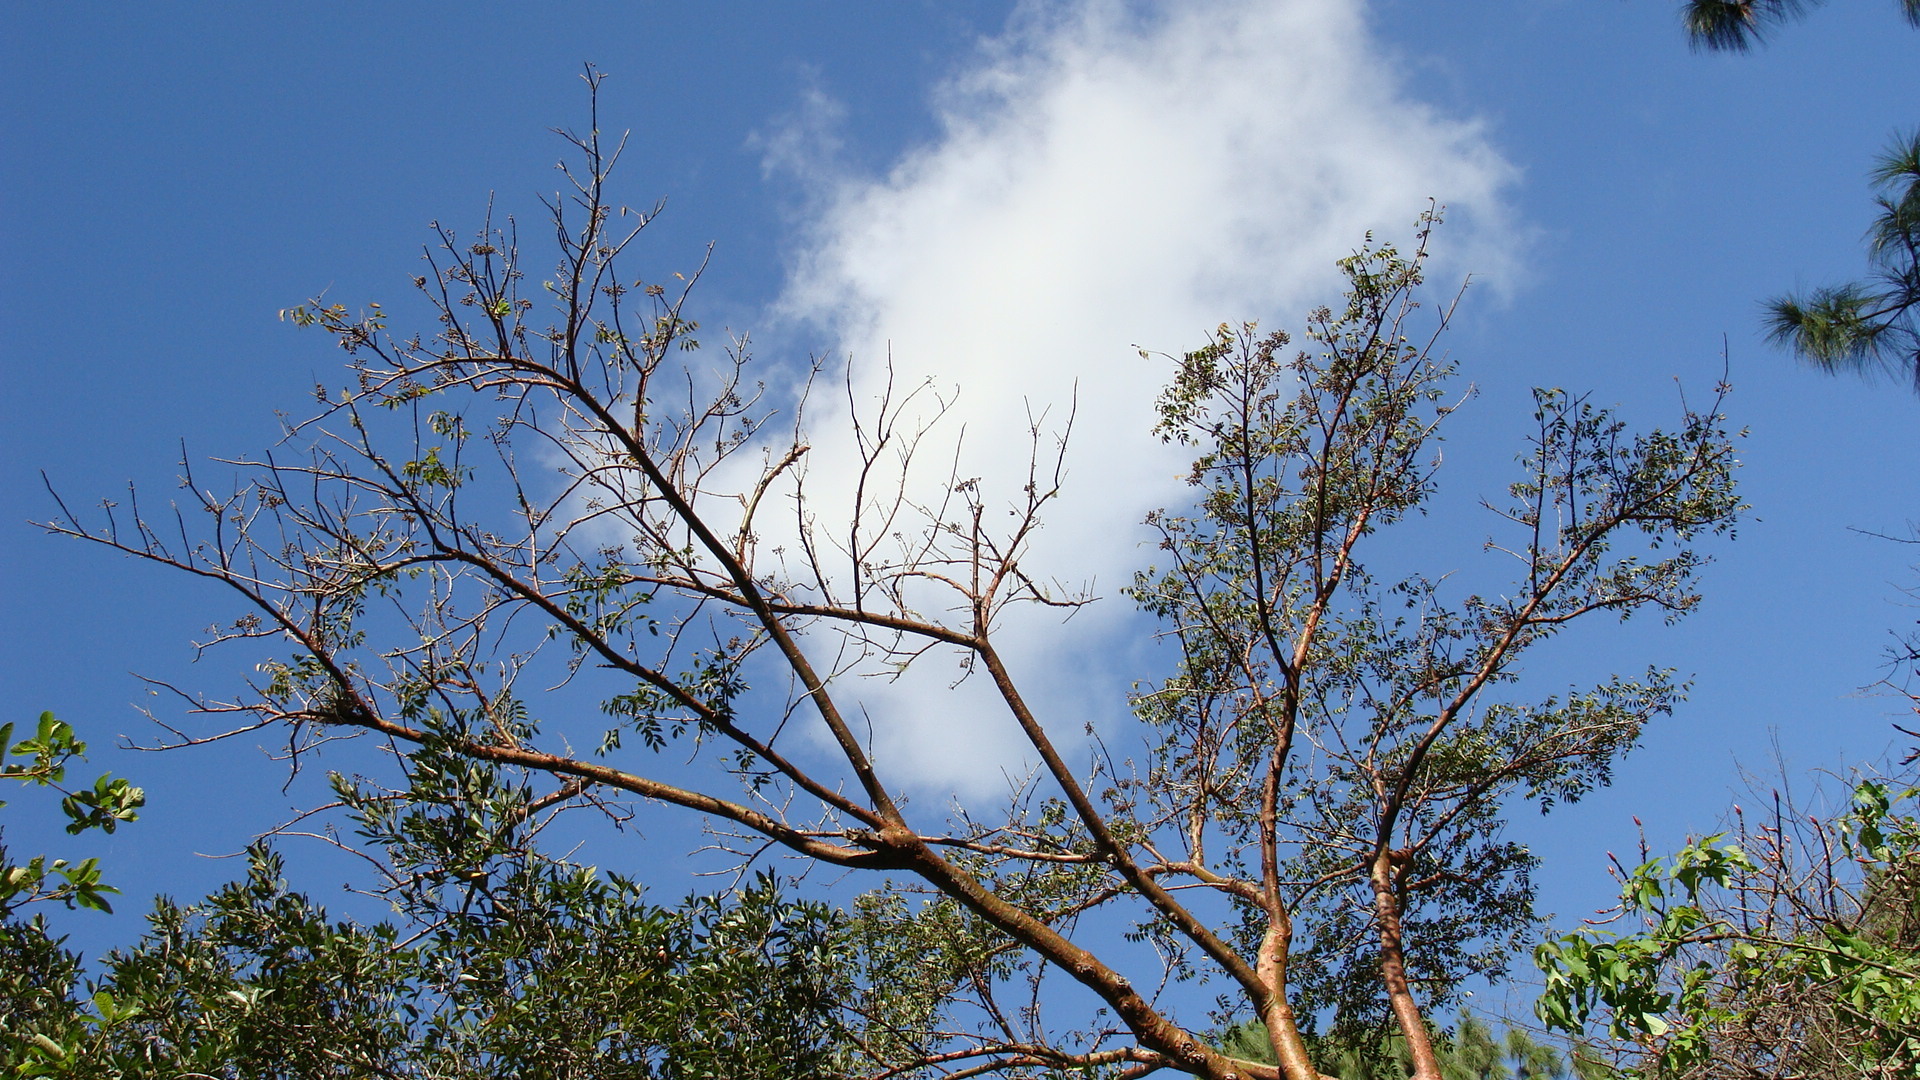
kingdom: Plantae
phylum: Tracheophyta
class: Magnoliopsida
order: Sapindales
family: Burseraceae
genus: Bursera
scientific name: Bursera simaruba
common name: Turpentine tree
